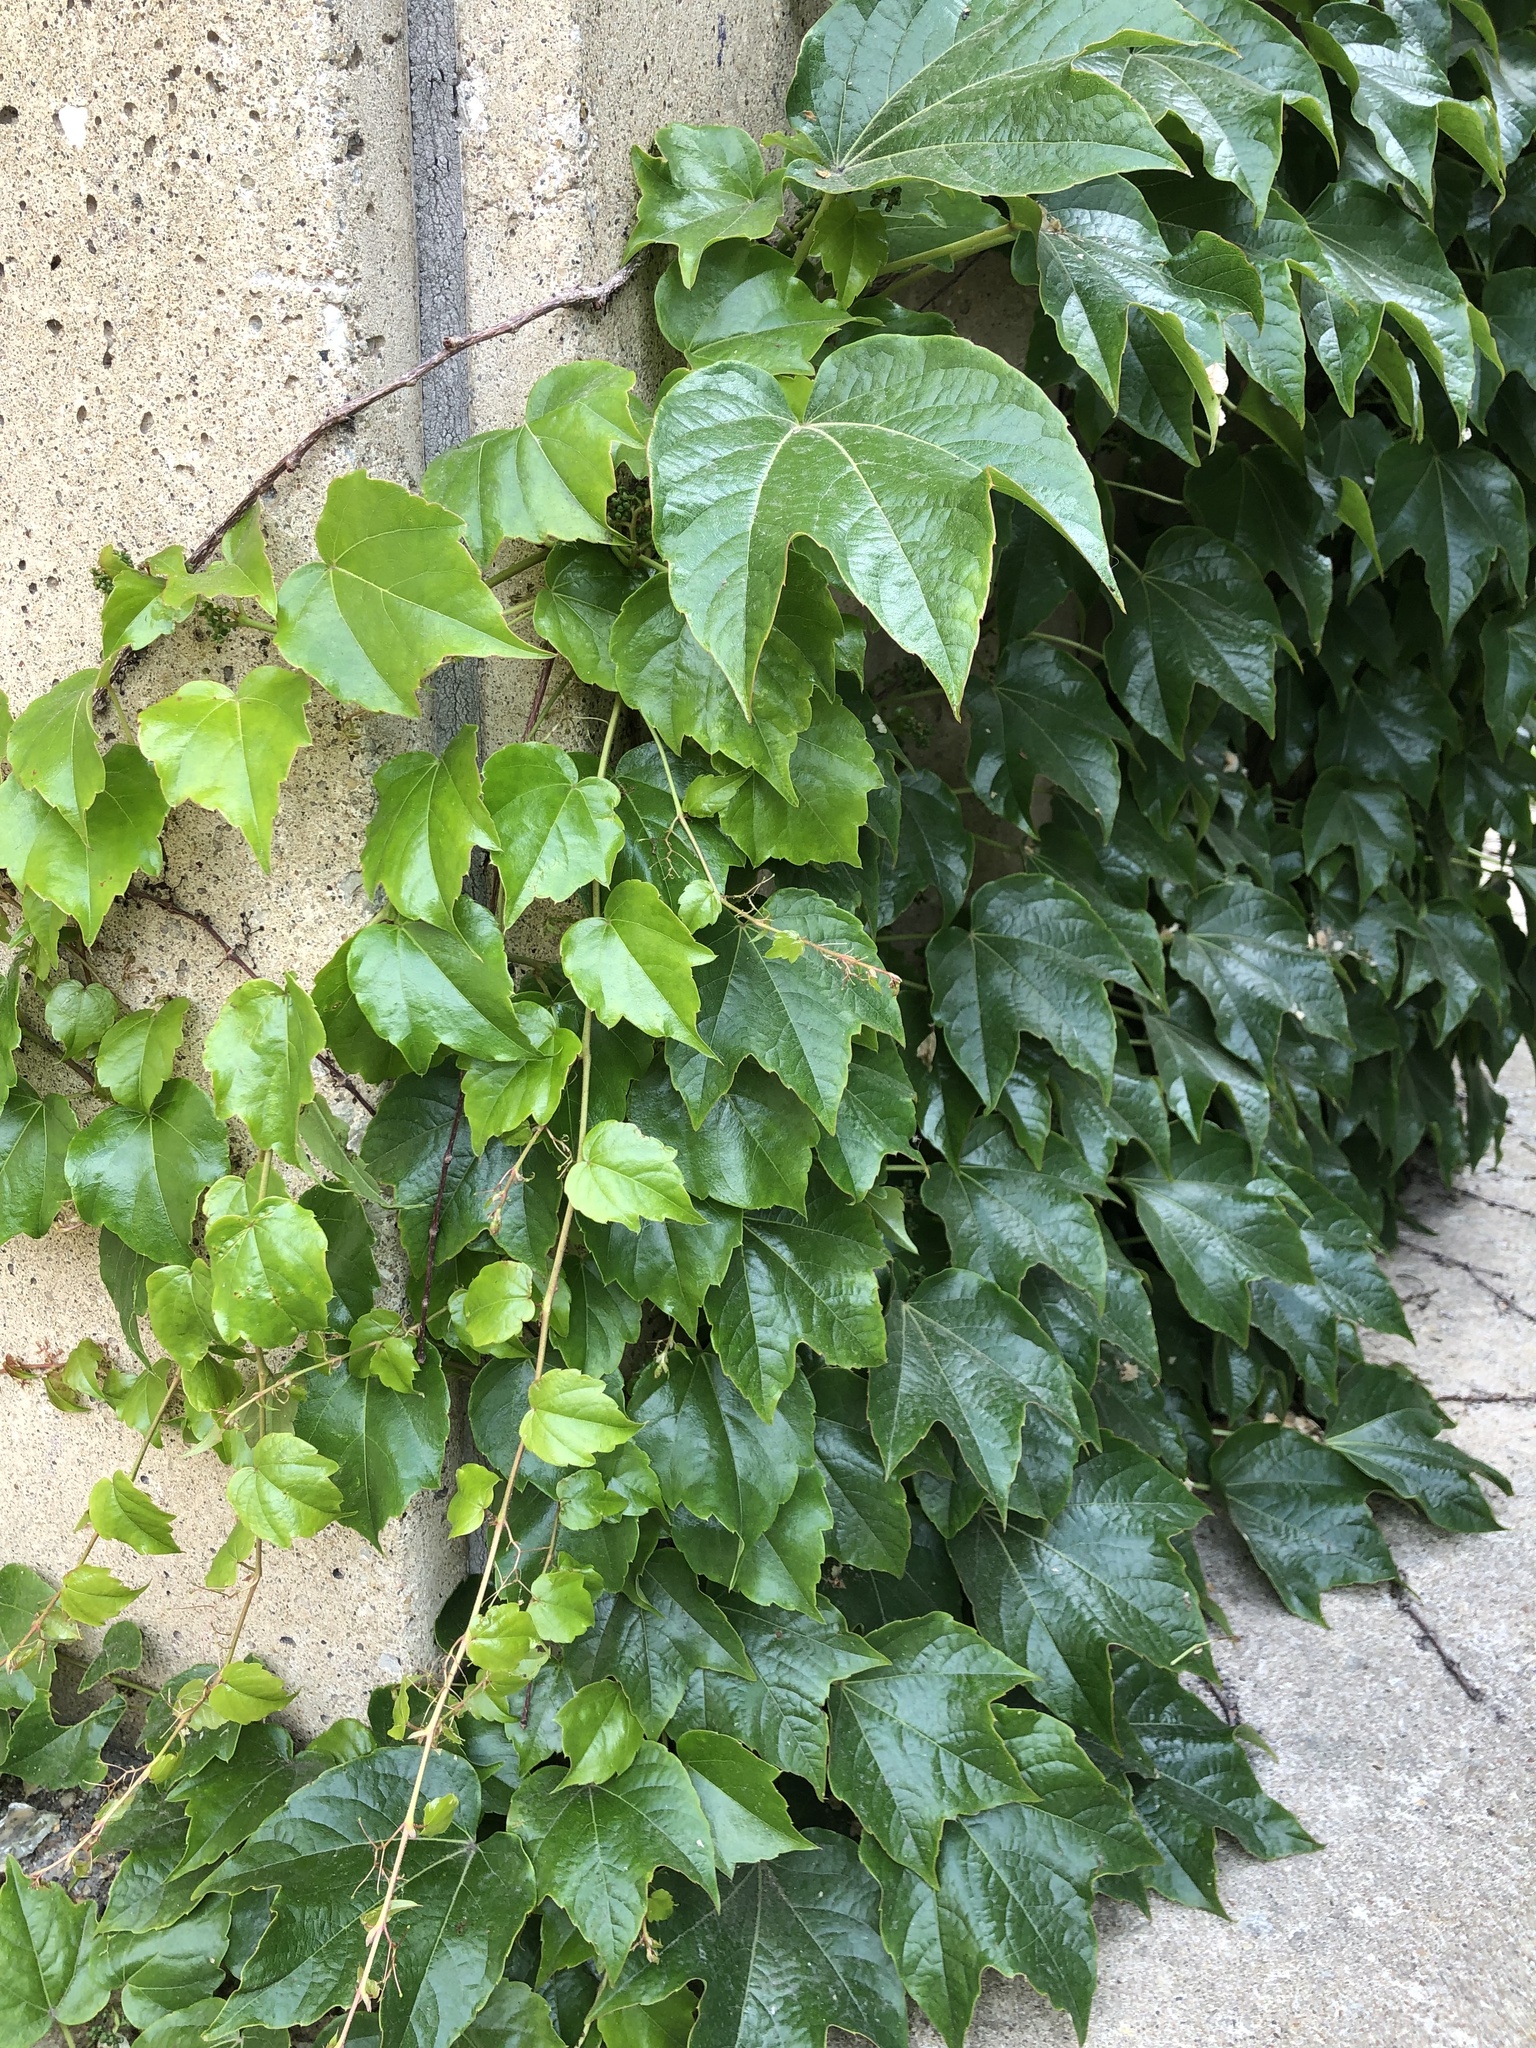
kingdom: Plantae
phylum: Tracheophyta
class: Magnoliopsida
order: Vitales
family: Vitaceae
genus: Parthenocissus
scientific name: Parthenocissus tricuspidata
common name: Boston ivy
